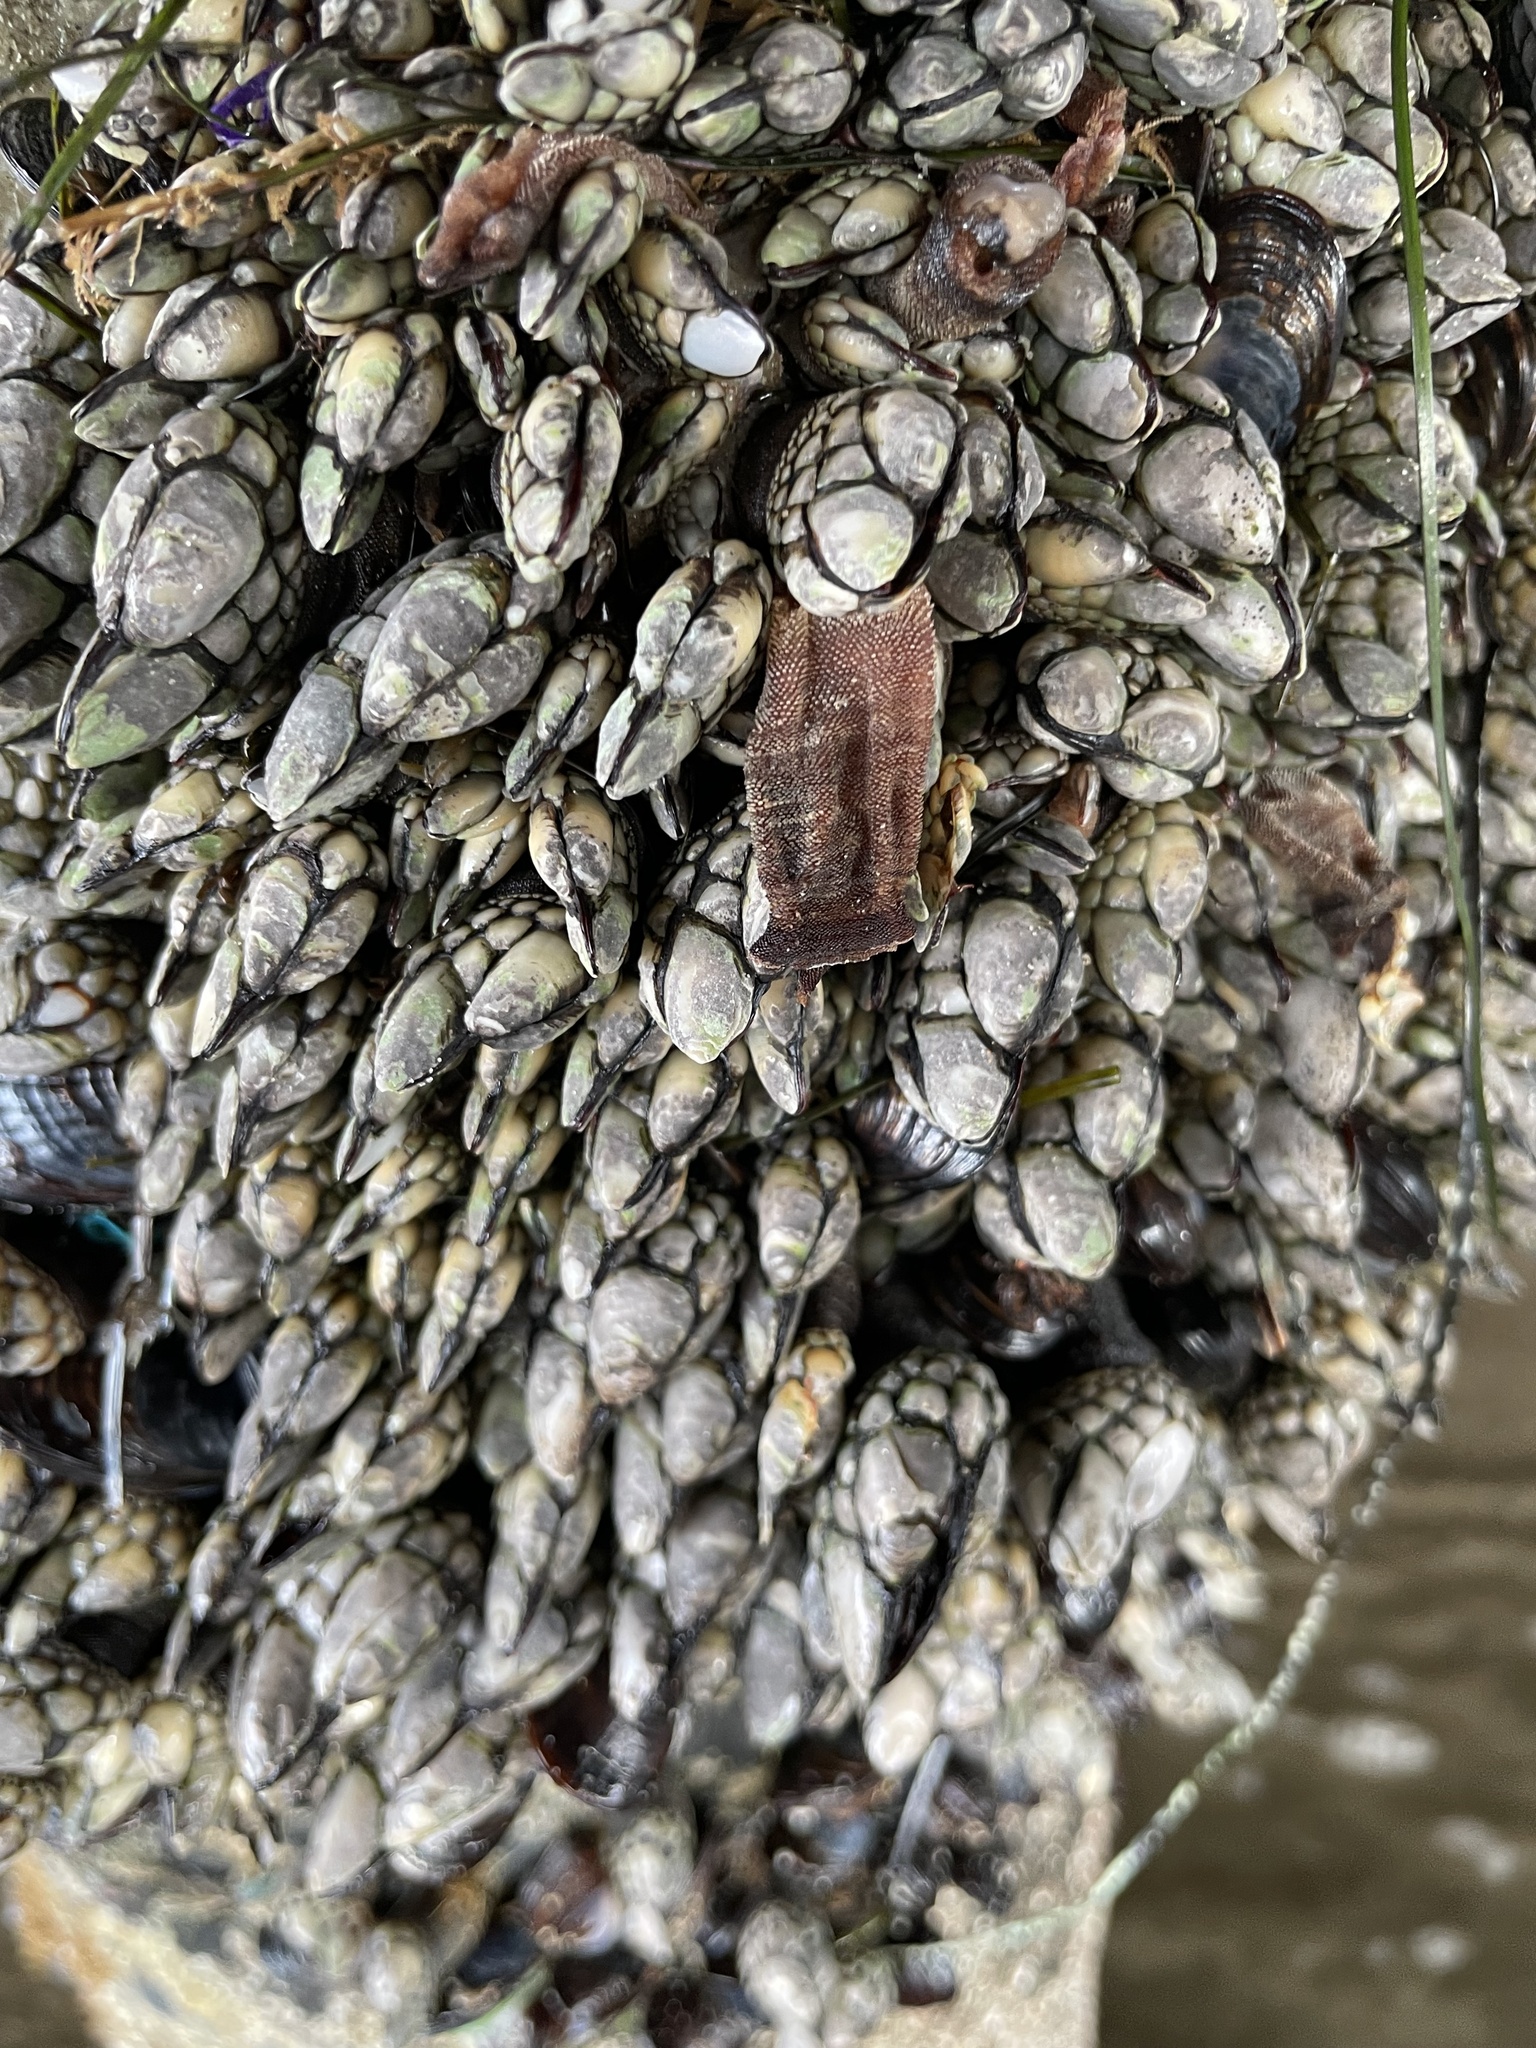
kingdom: Animalia
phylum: Arthropoda
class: Maxillopoda
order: Pedunculata
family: Pollicipedidae
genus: Pollicipes
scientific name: Pollicipes polymerus
